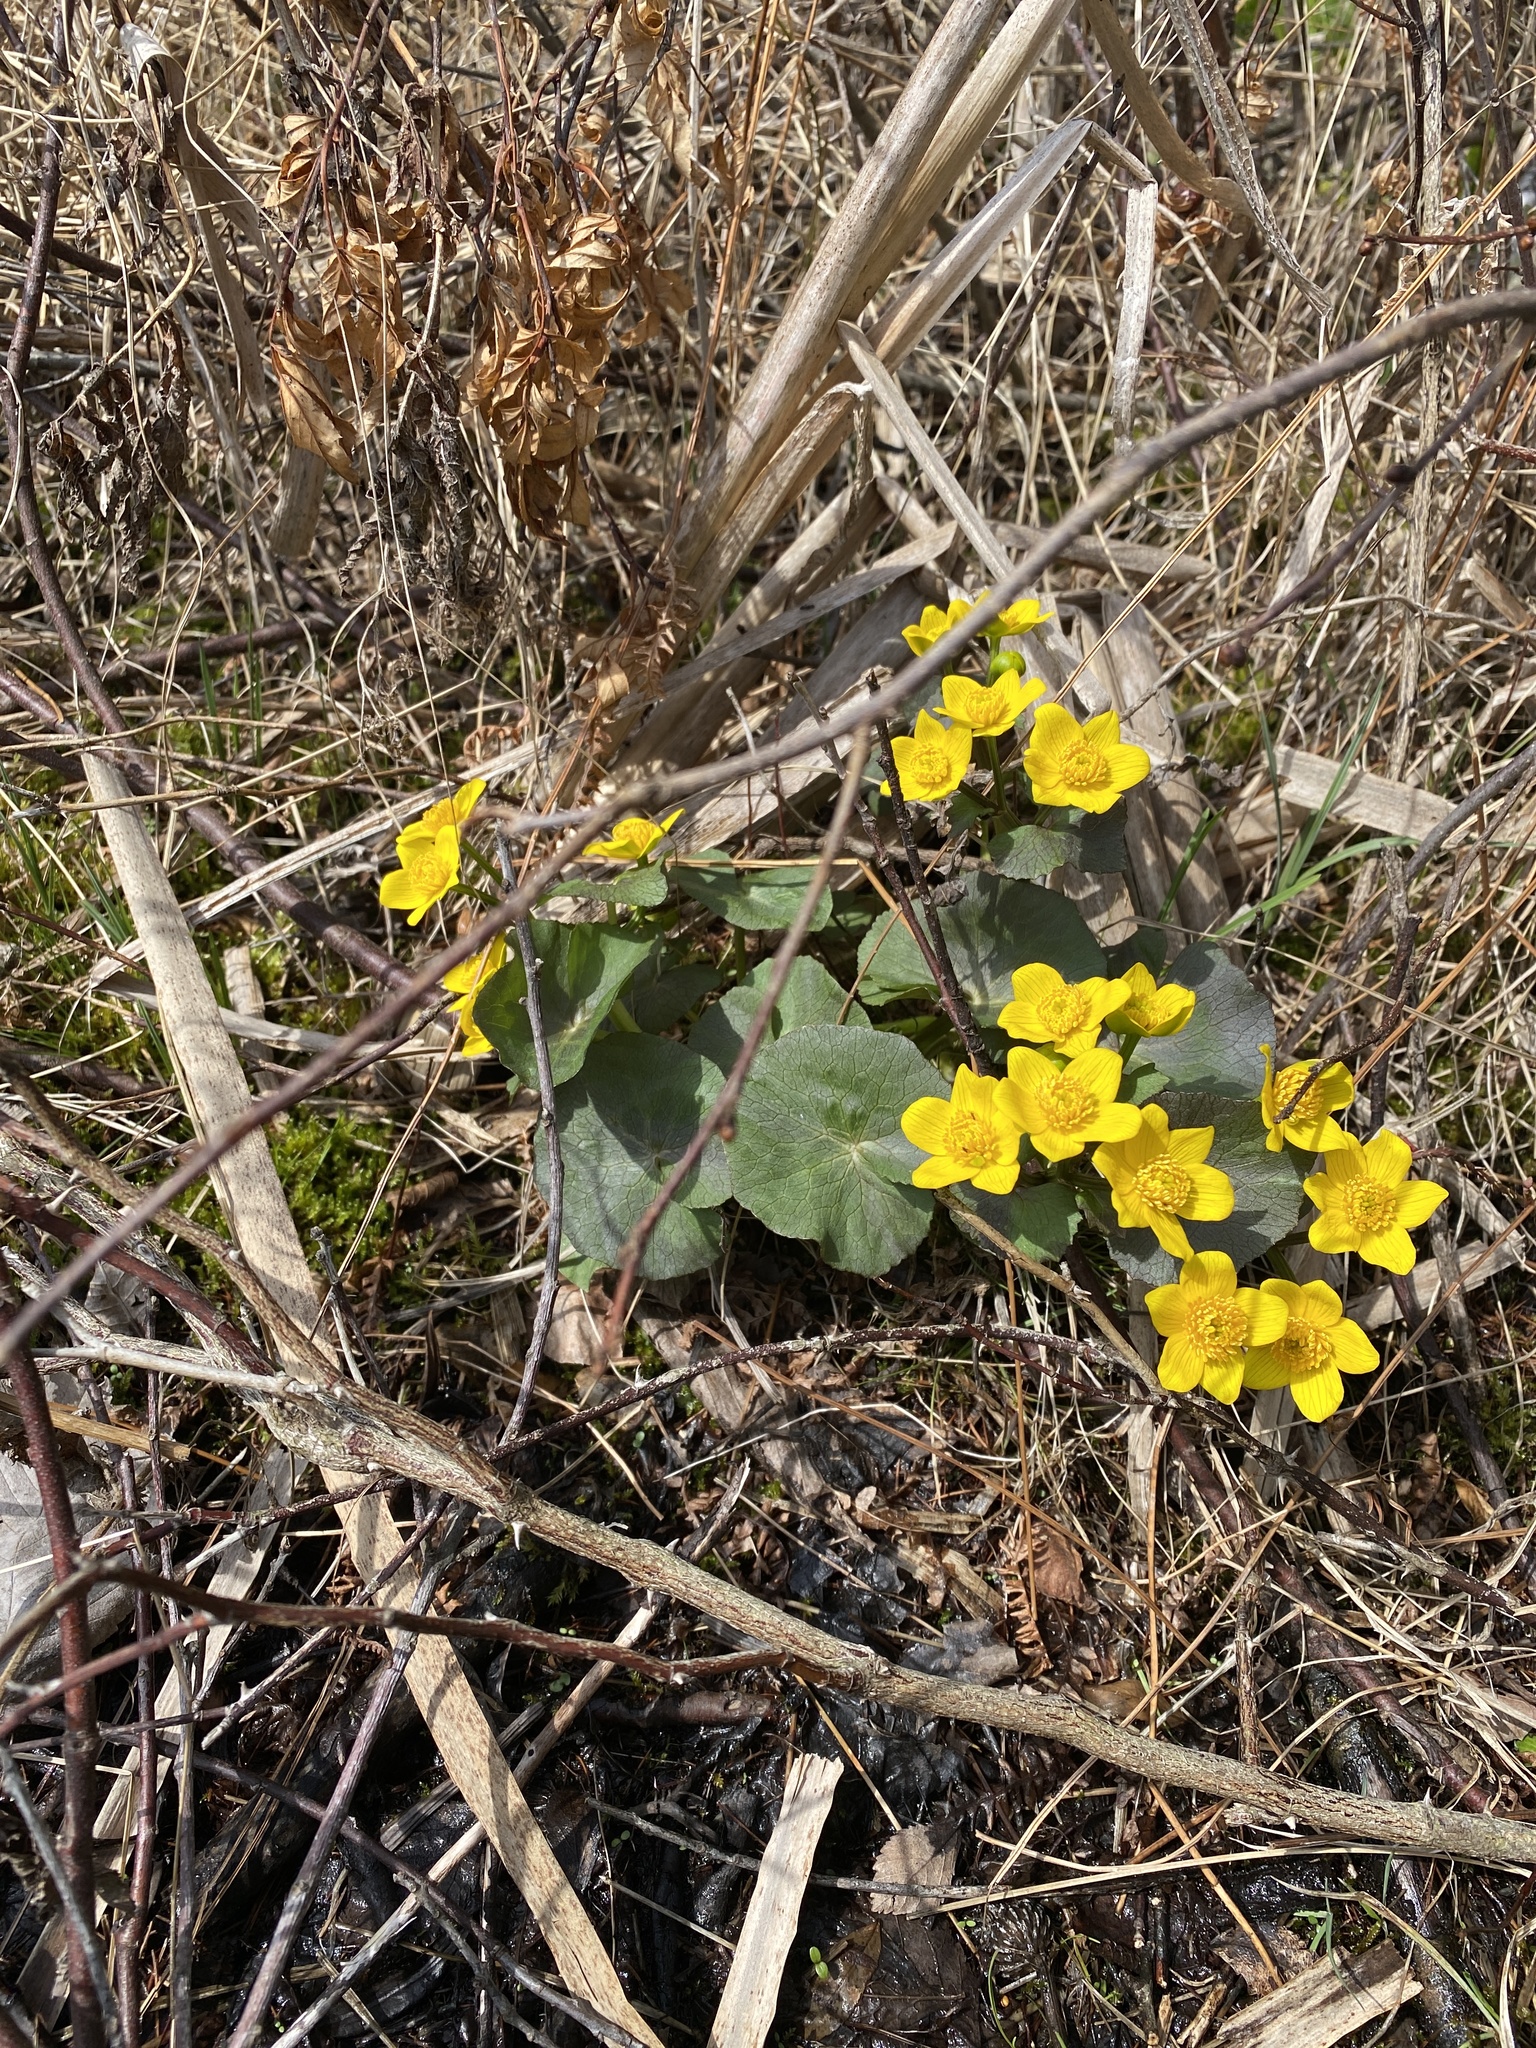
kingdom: Plantae
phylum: Tracheophyta
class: Magnoliopsida
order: Ranunculales
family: Ranunculaceae
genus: Caltha
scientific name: Caltha palustris
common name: Marsh marigold
